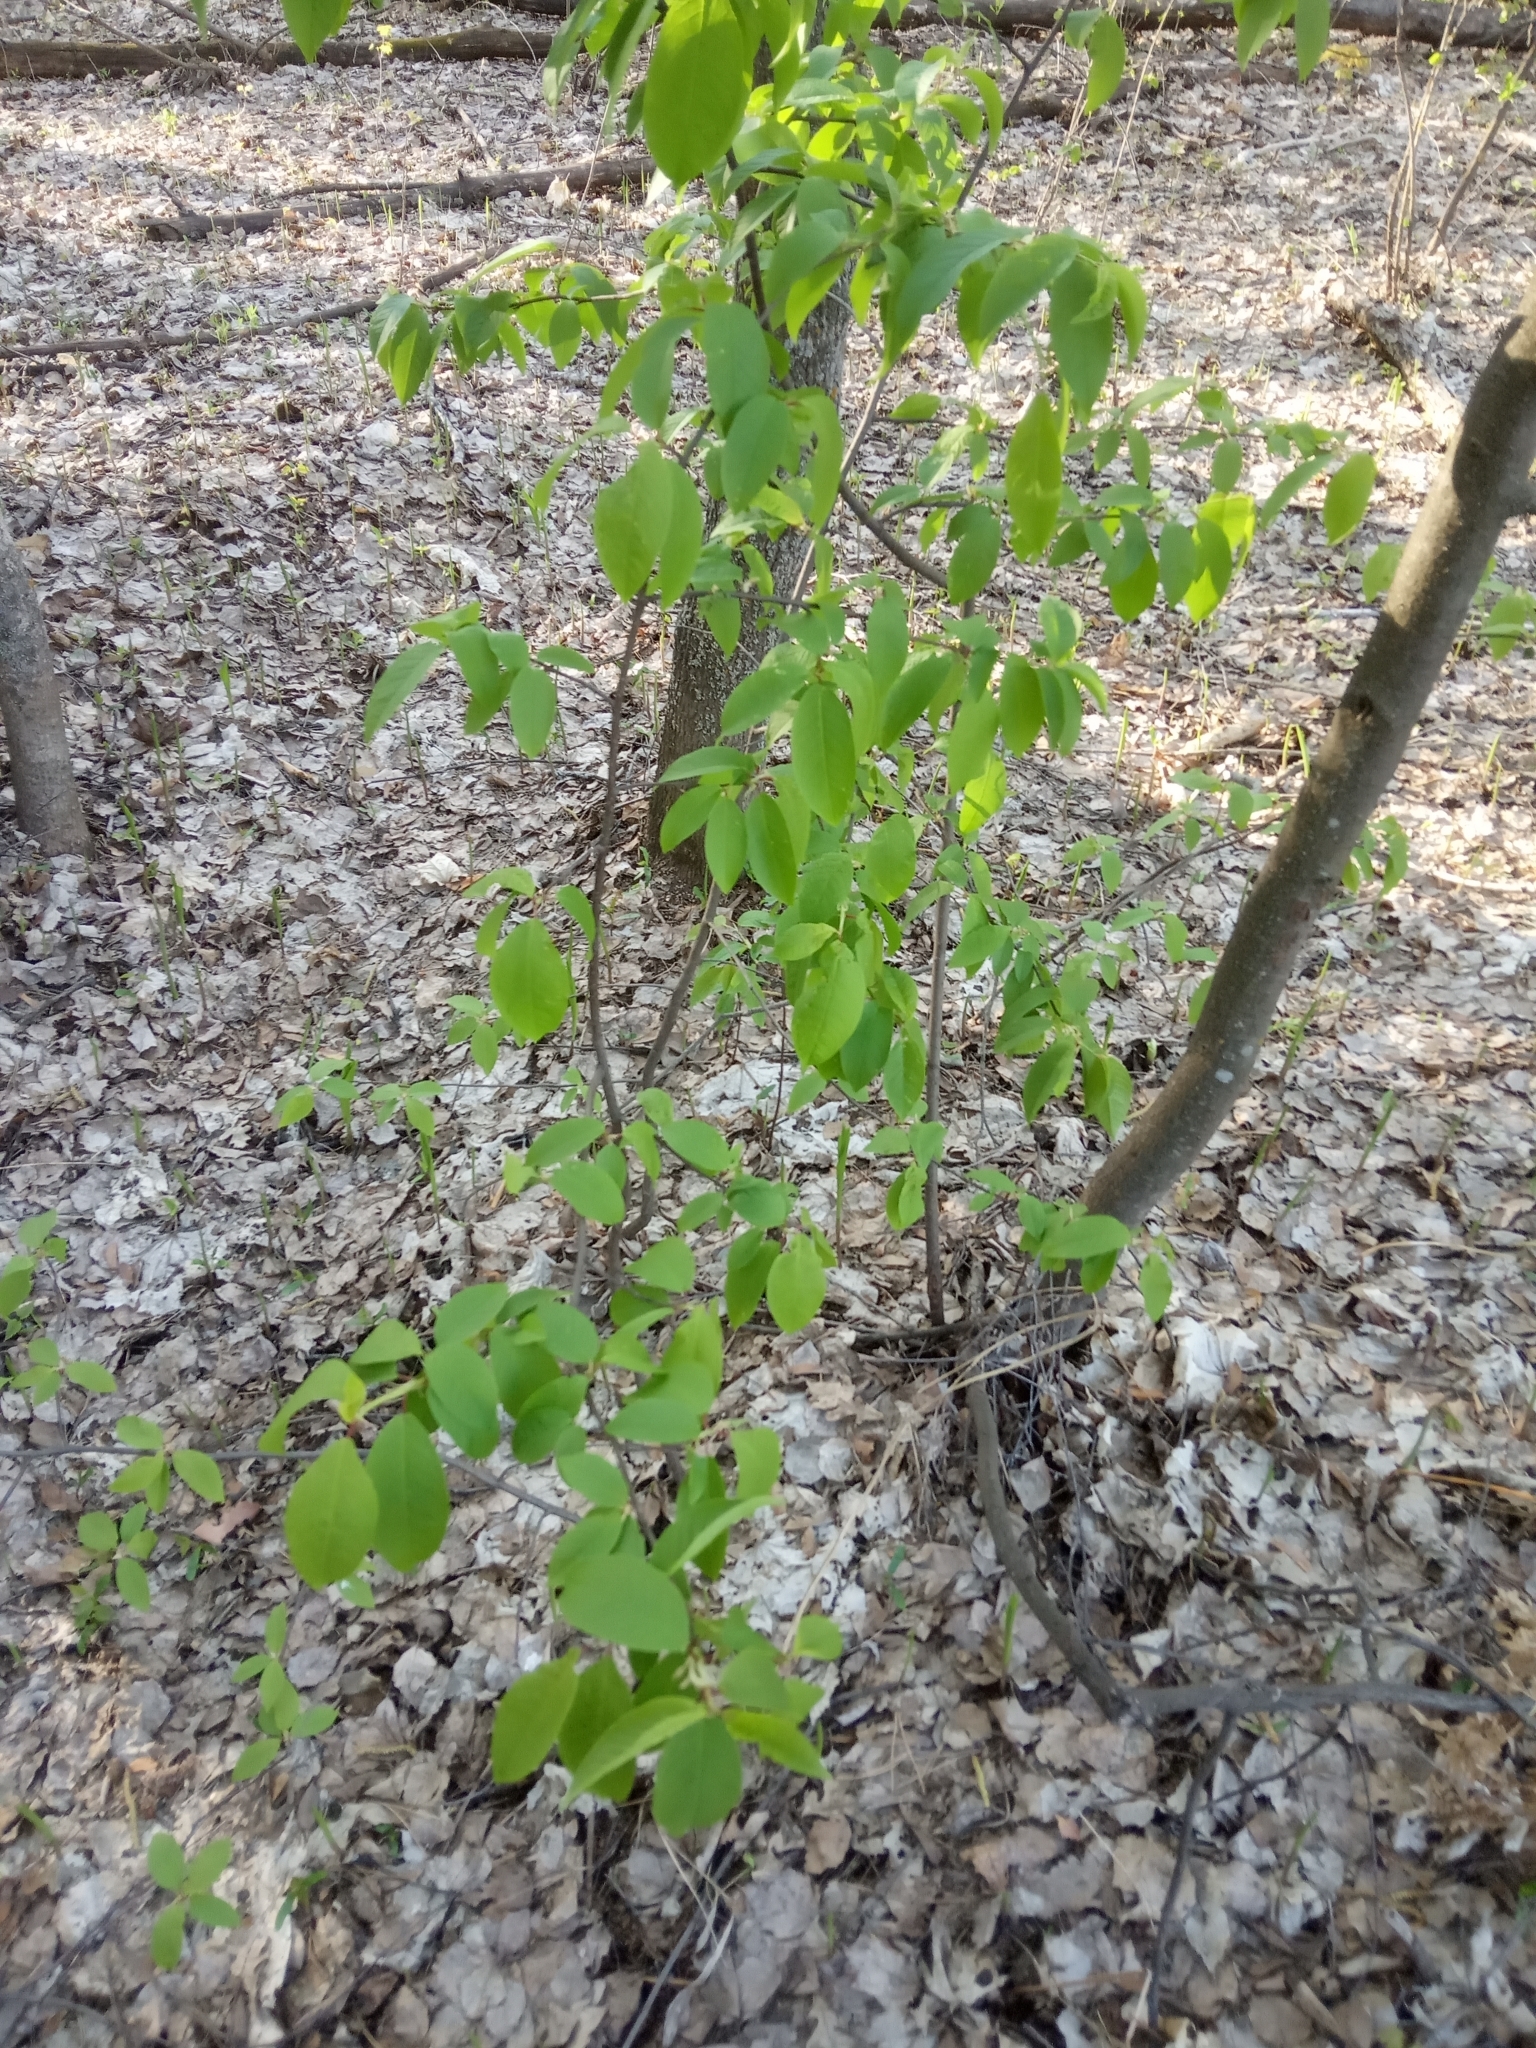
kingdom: Plantae
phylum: Tracheophyta
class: Magnoliopsida
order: Rosales
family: Rosaceae
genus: Prunus
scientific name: Prunus padus
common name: Bird cherry
